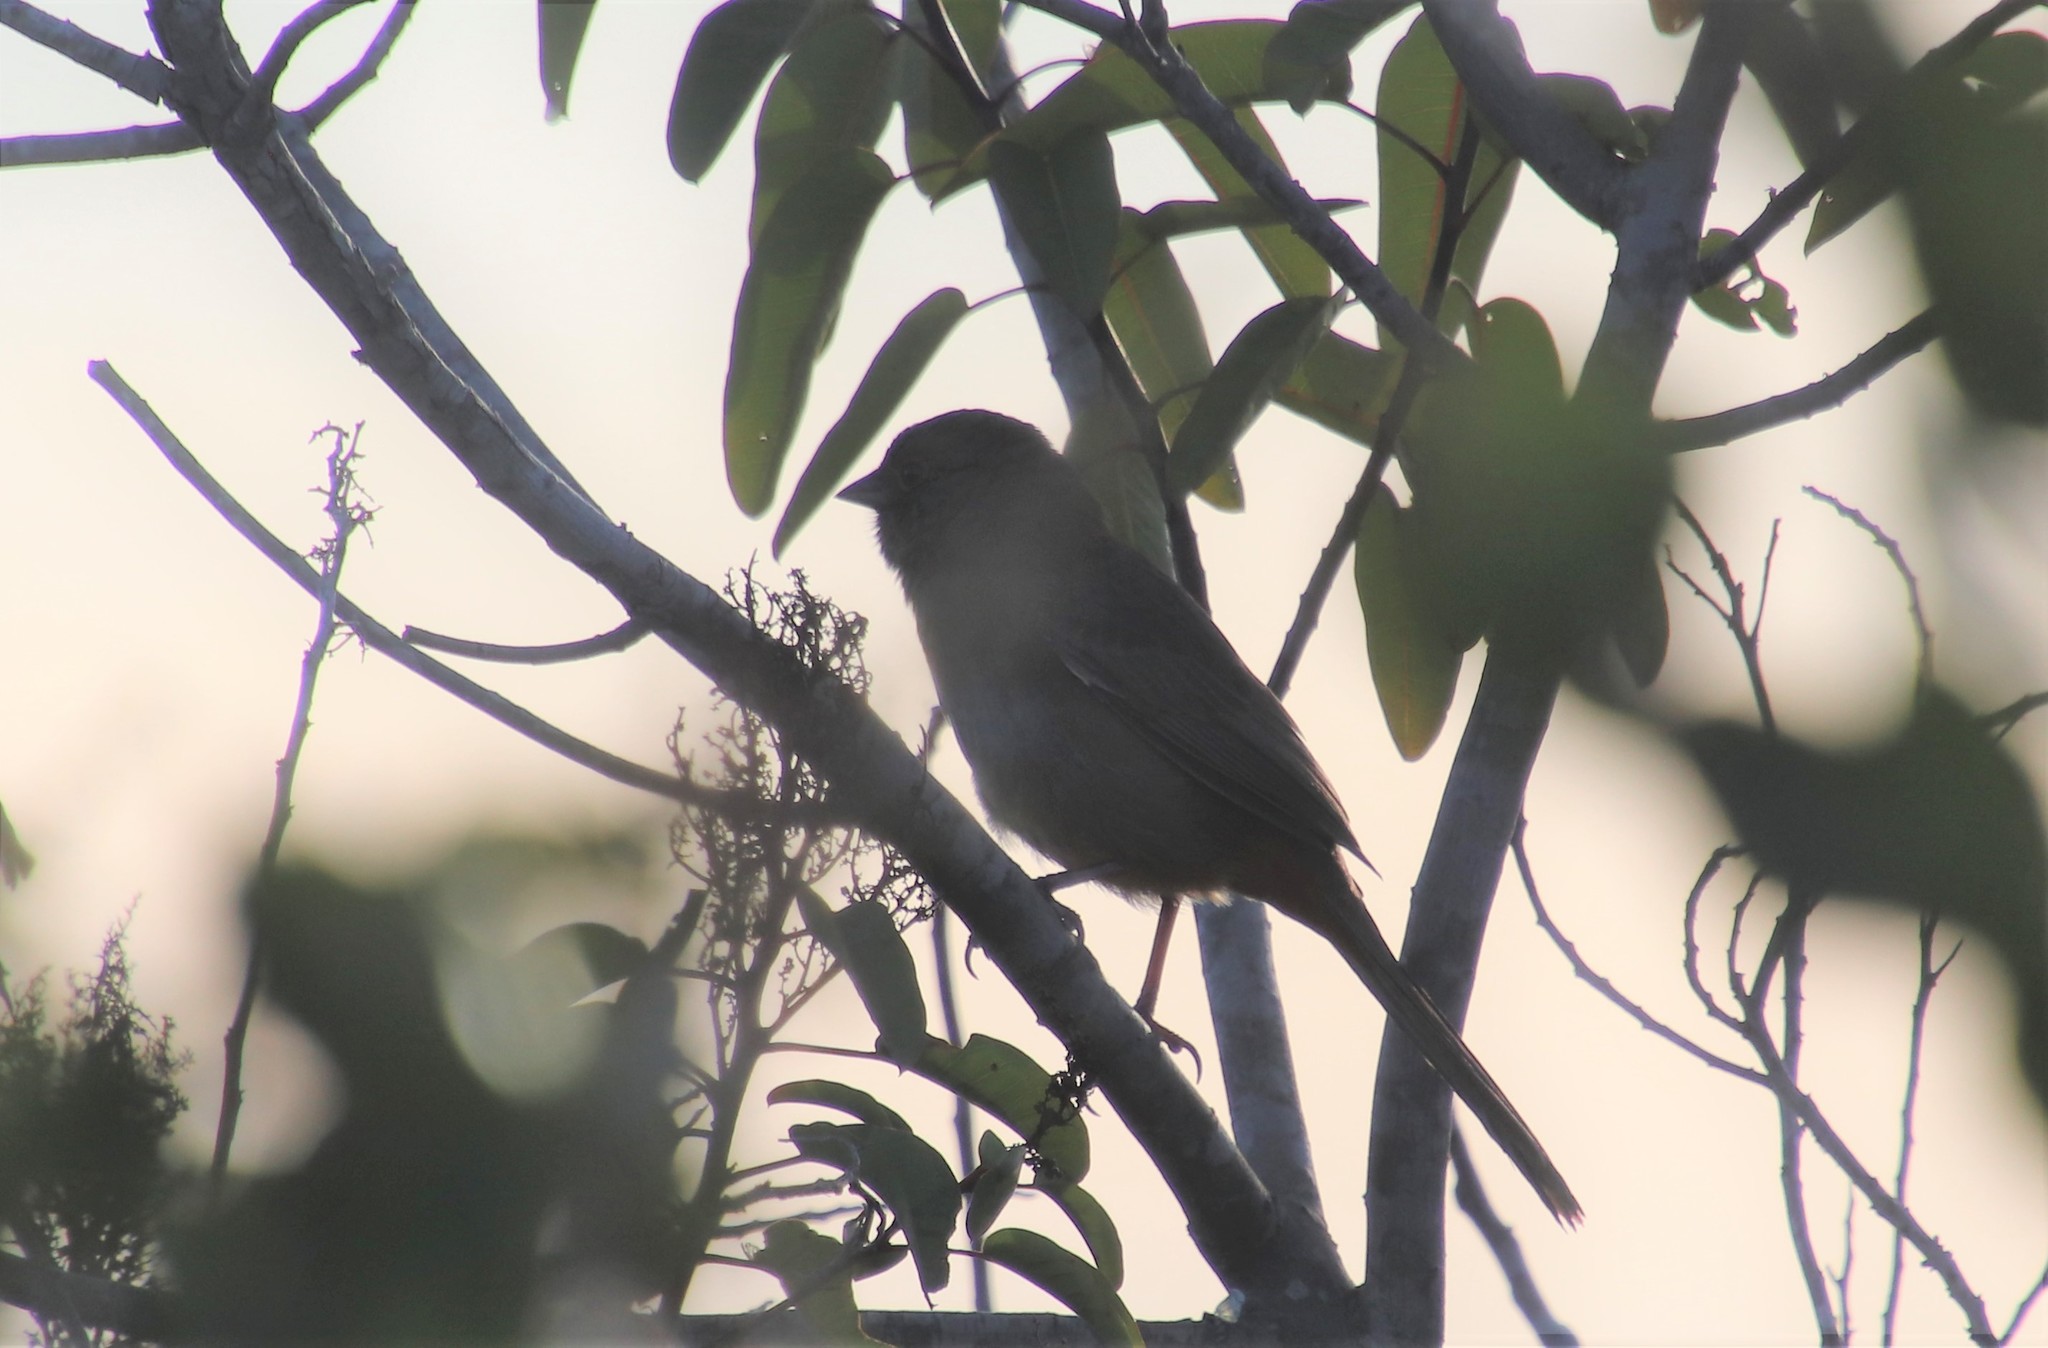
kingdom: Animalia
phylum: Chordata
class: Aves
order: Passeriformes
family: Passerellidae
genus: Melozone
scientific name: Melozone crissalis
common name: California towhee
